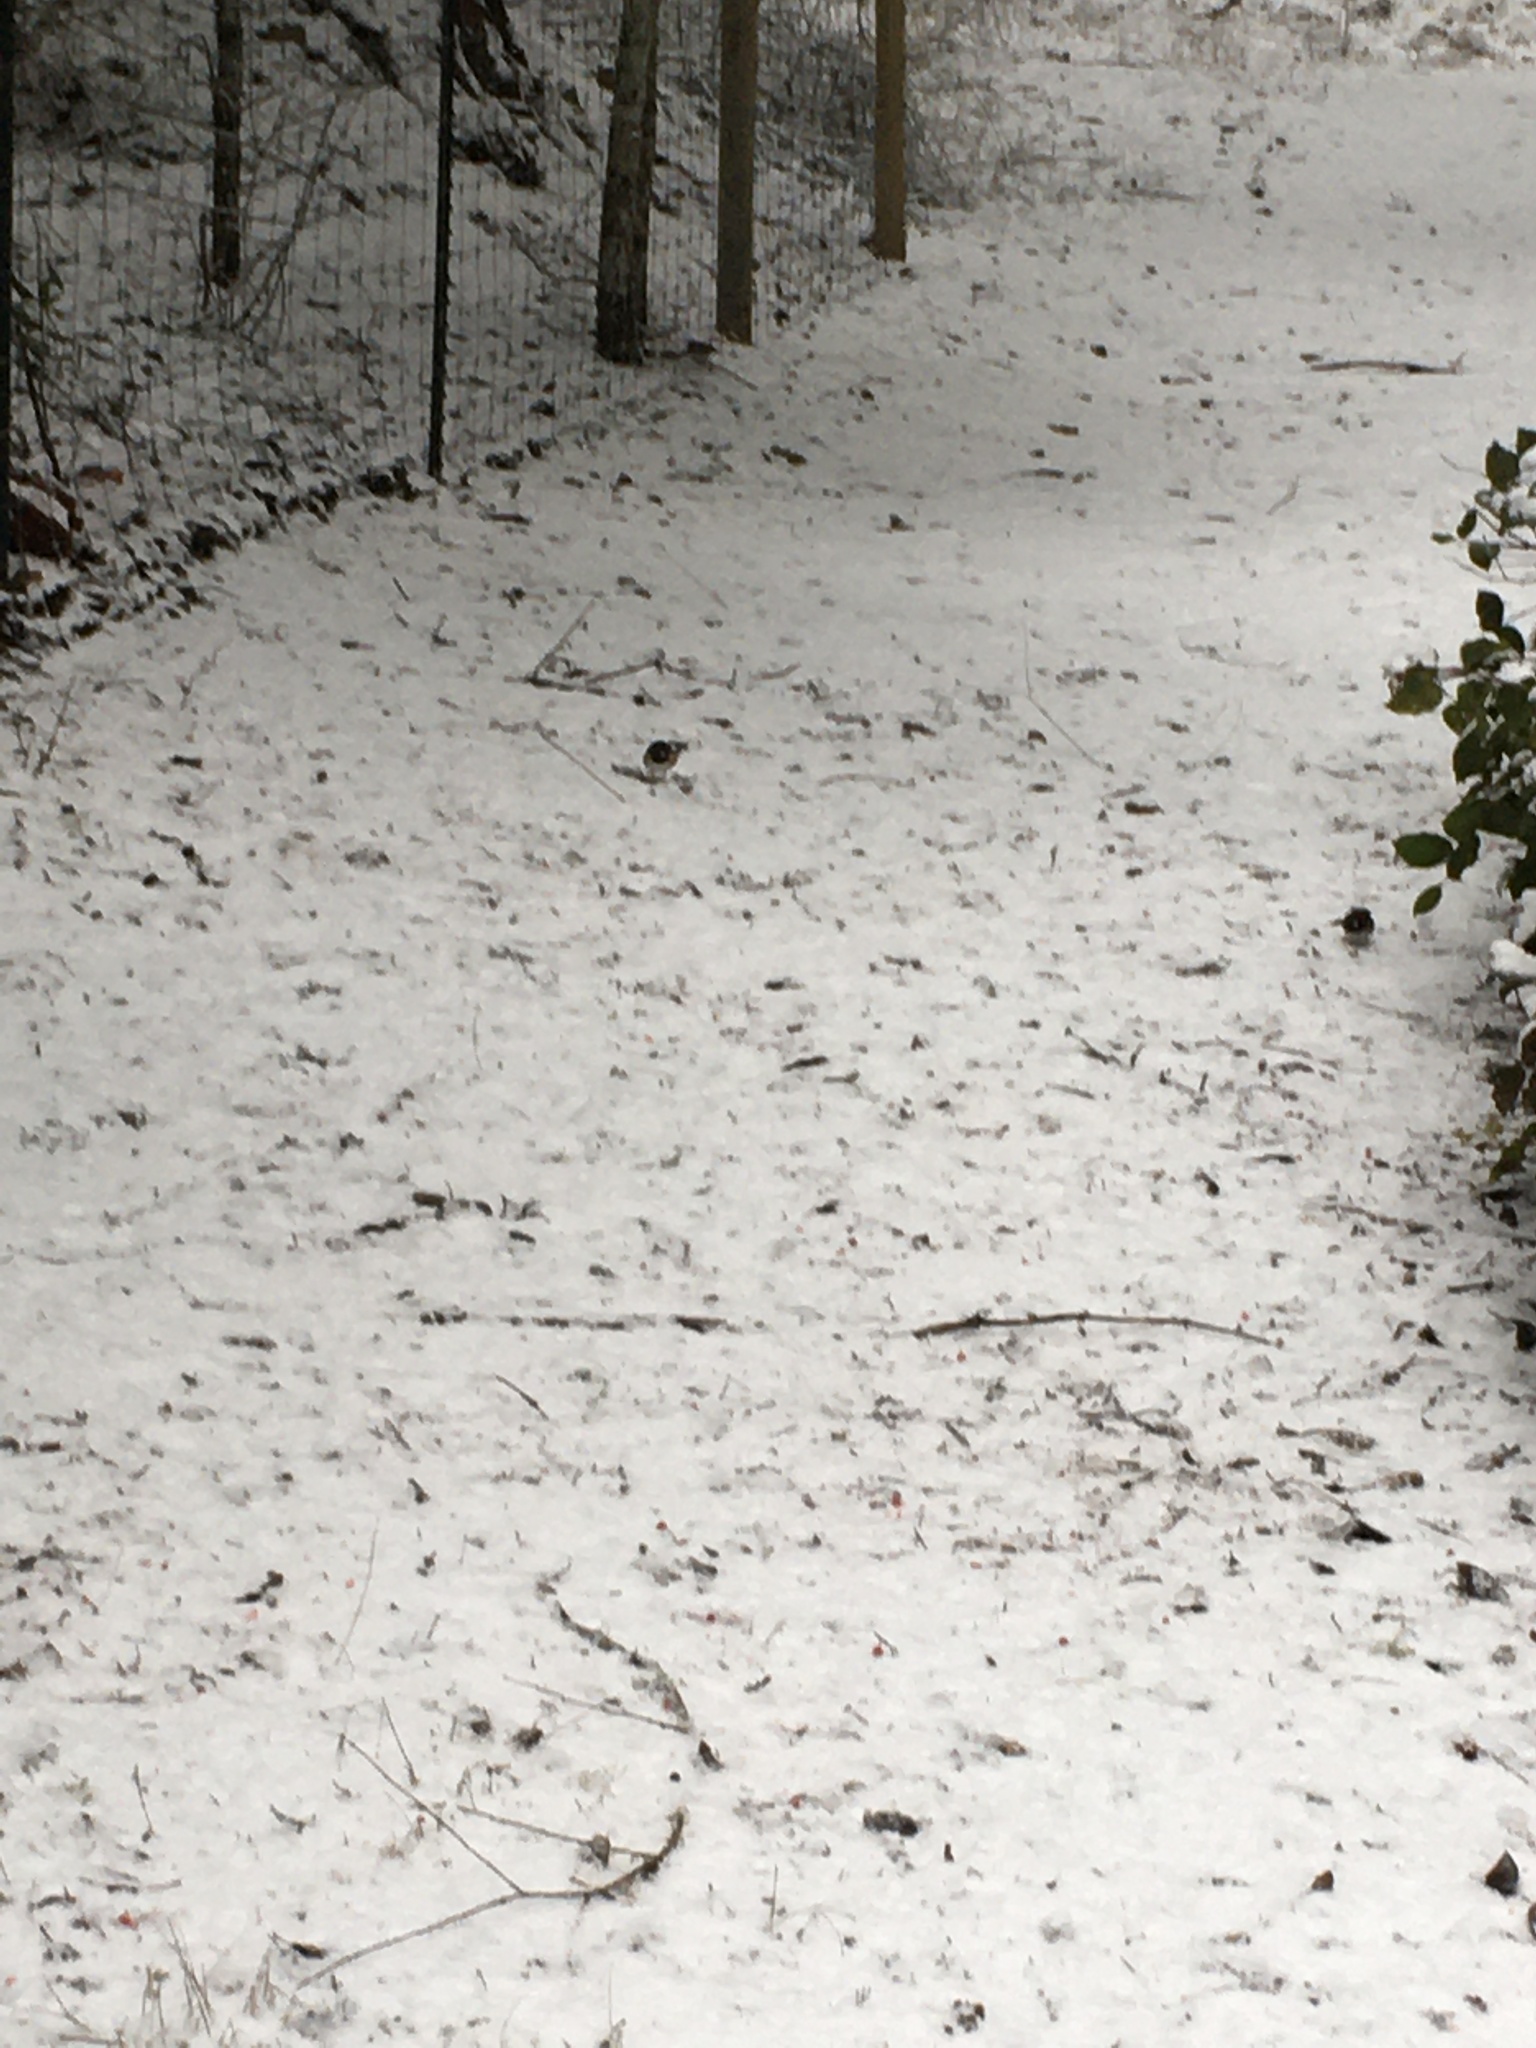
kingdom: Animalia
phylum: Chordata
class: Aves
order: Passeriformes
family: Passerellidae
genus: Junco
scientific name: Junco hyemalis
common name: Dark-eyed junco
